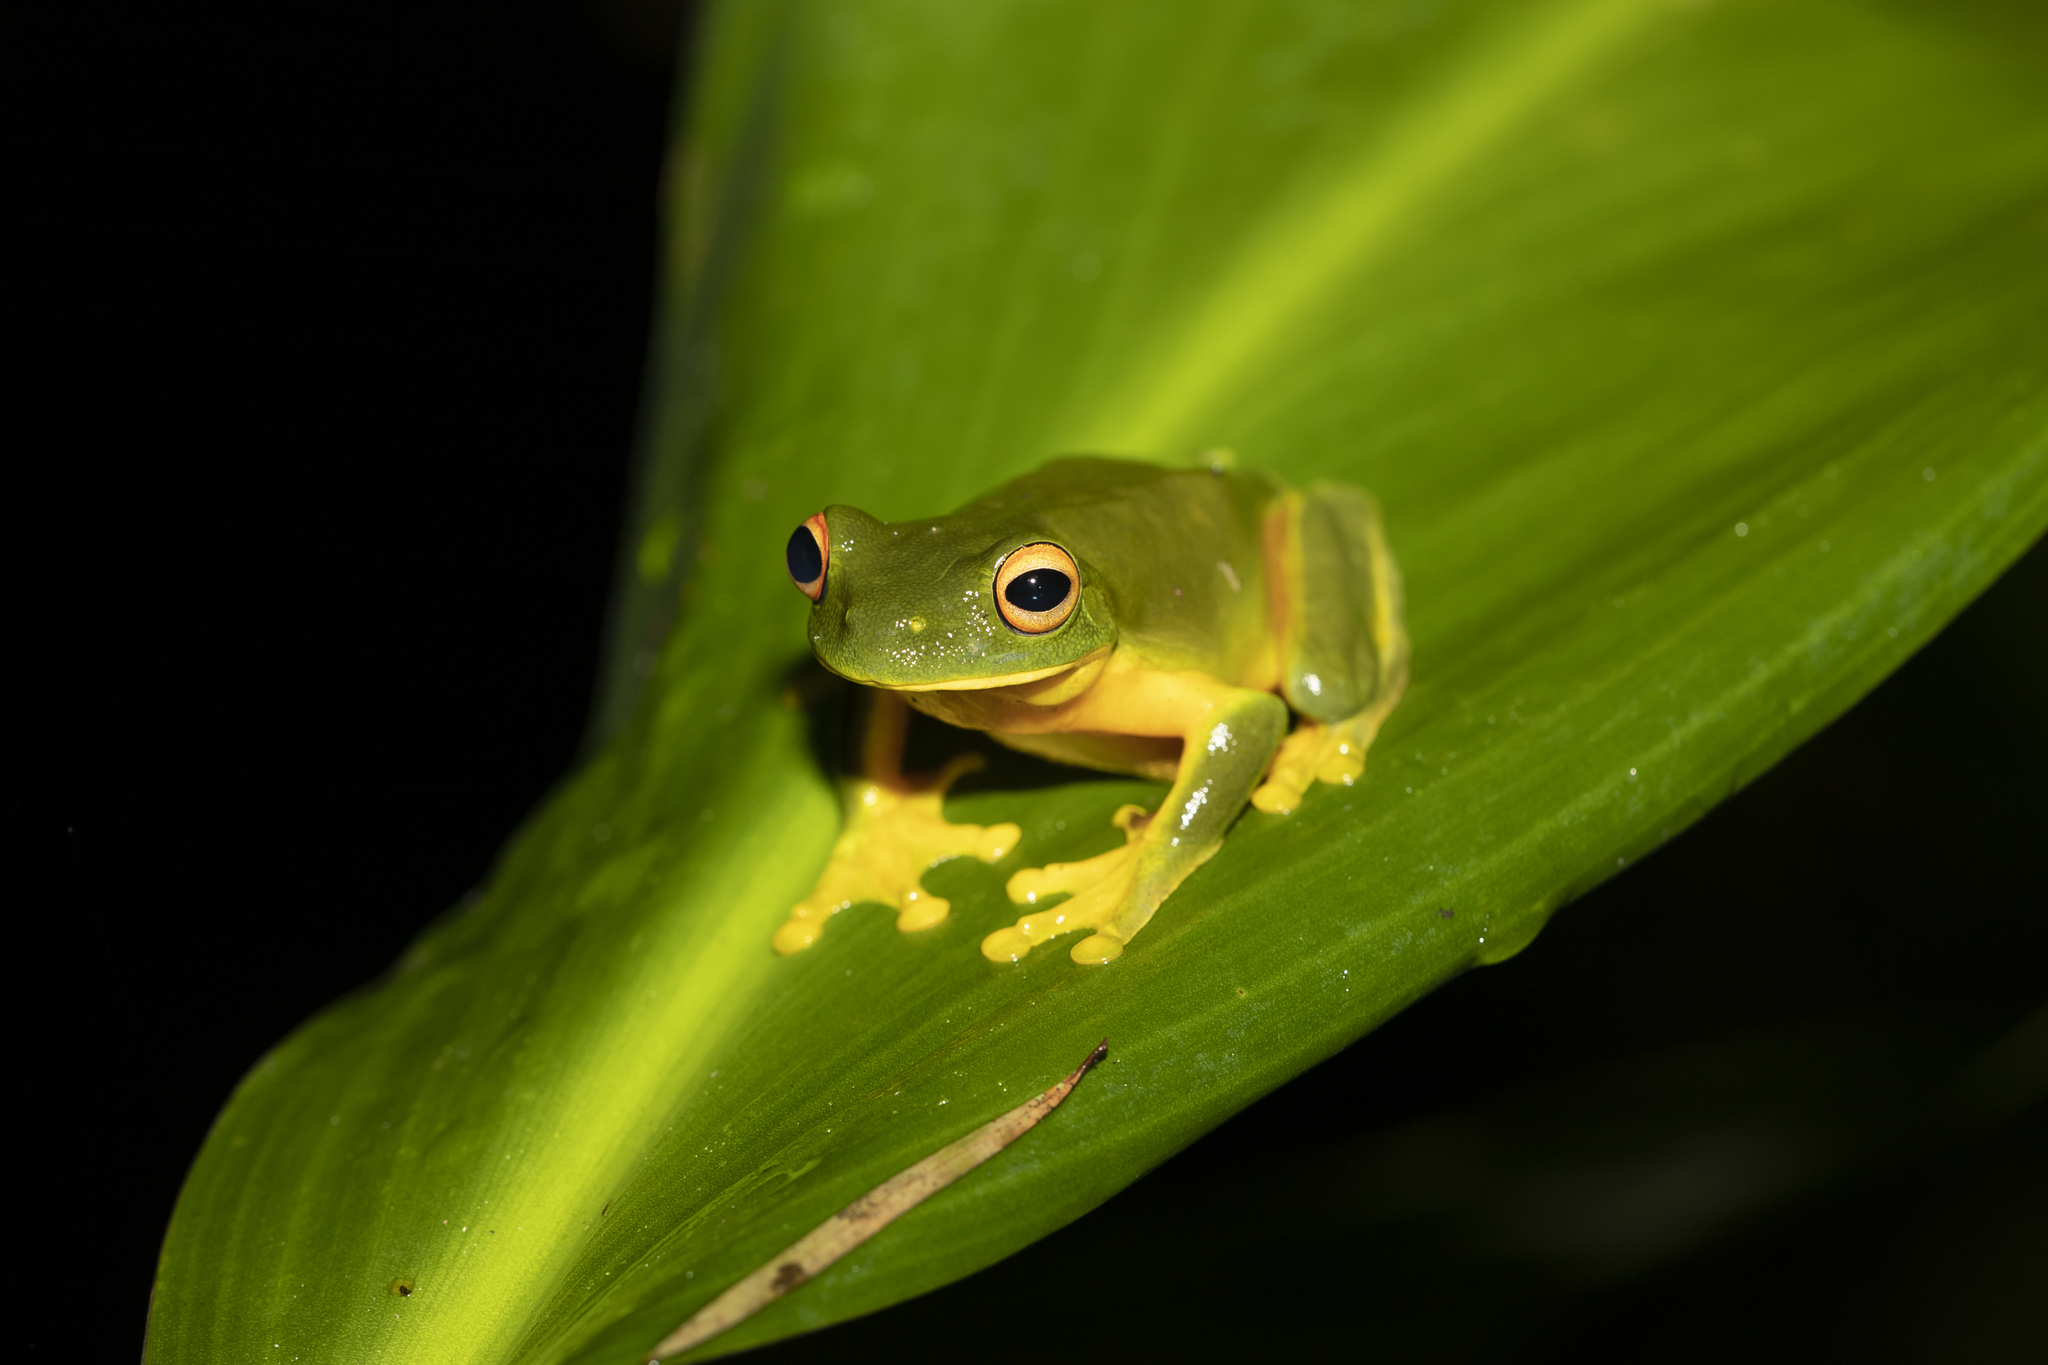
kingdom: Animalia
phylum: Chordata
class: Amphibia
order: Anura
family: Pelodryadidae
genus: Ranoidea
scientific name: Ranoidea xanthomera
